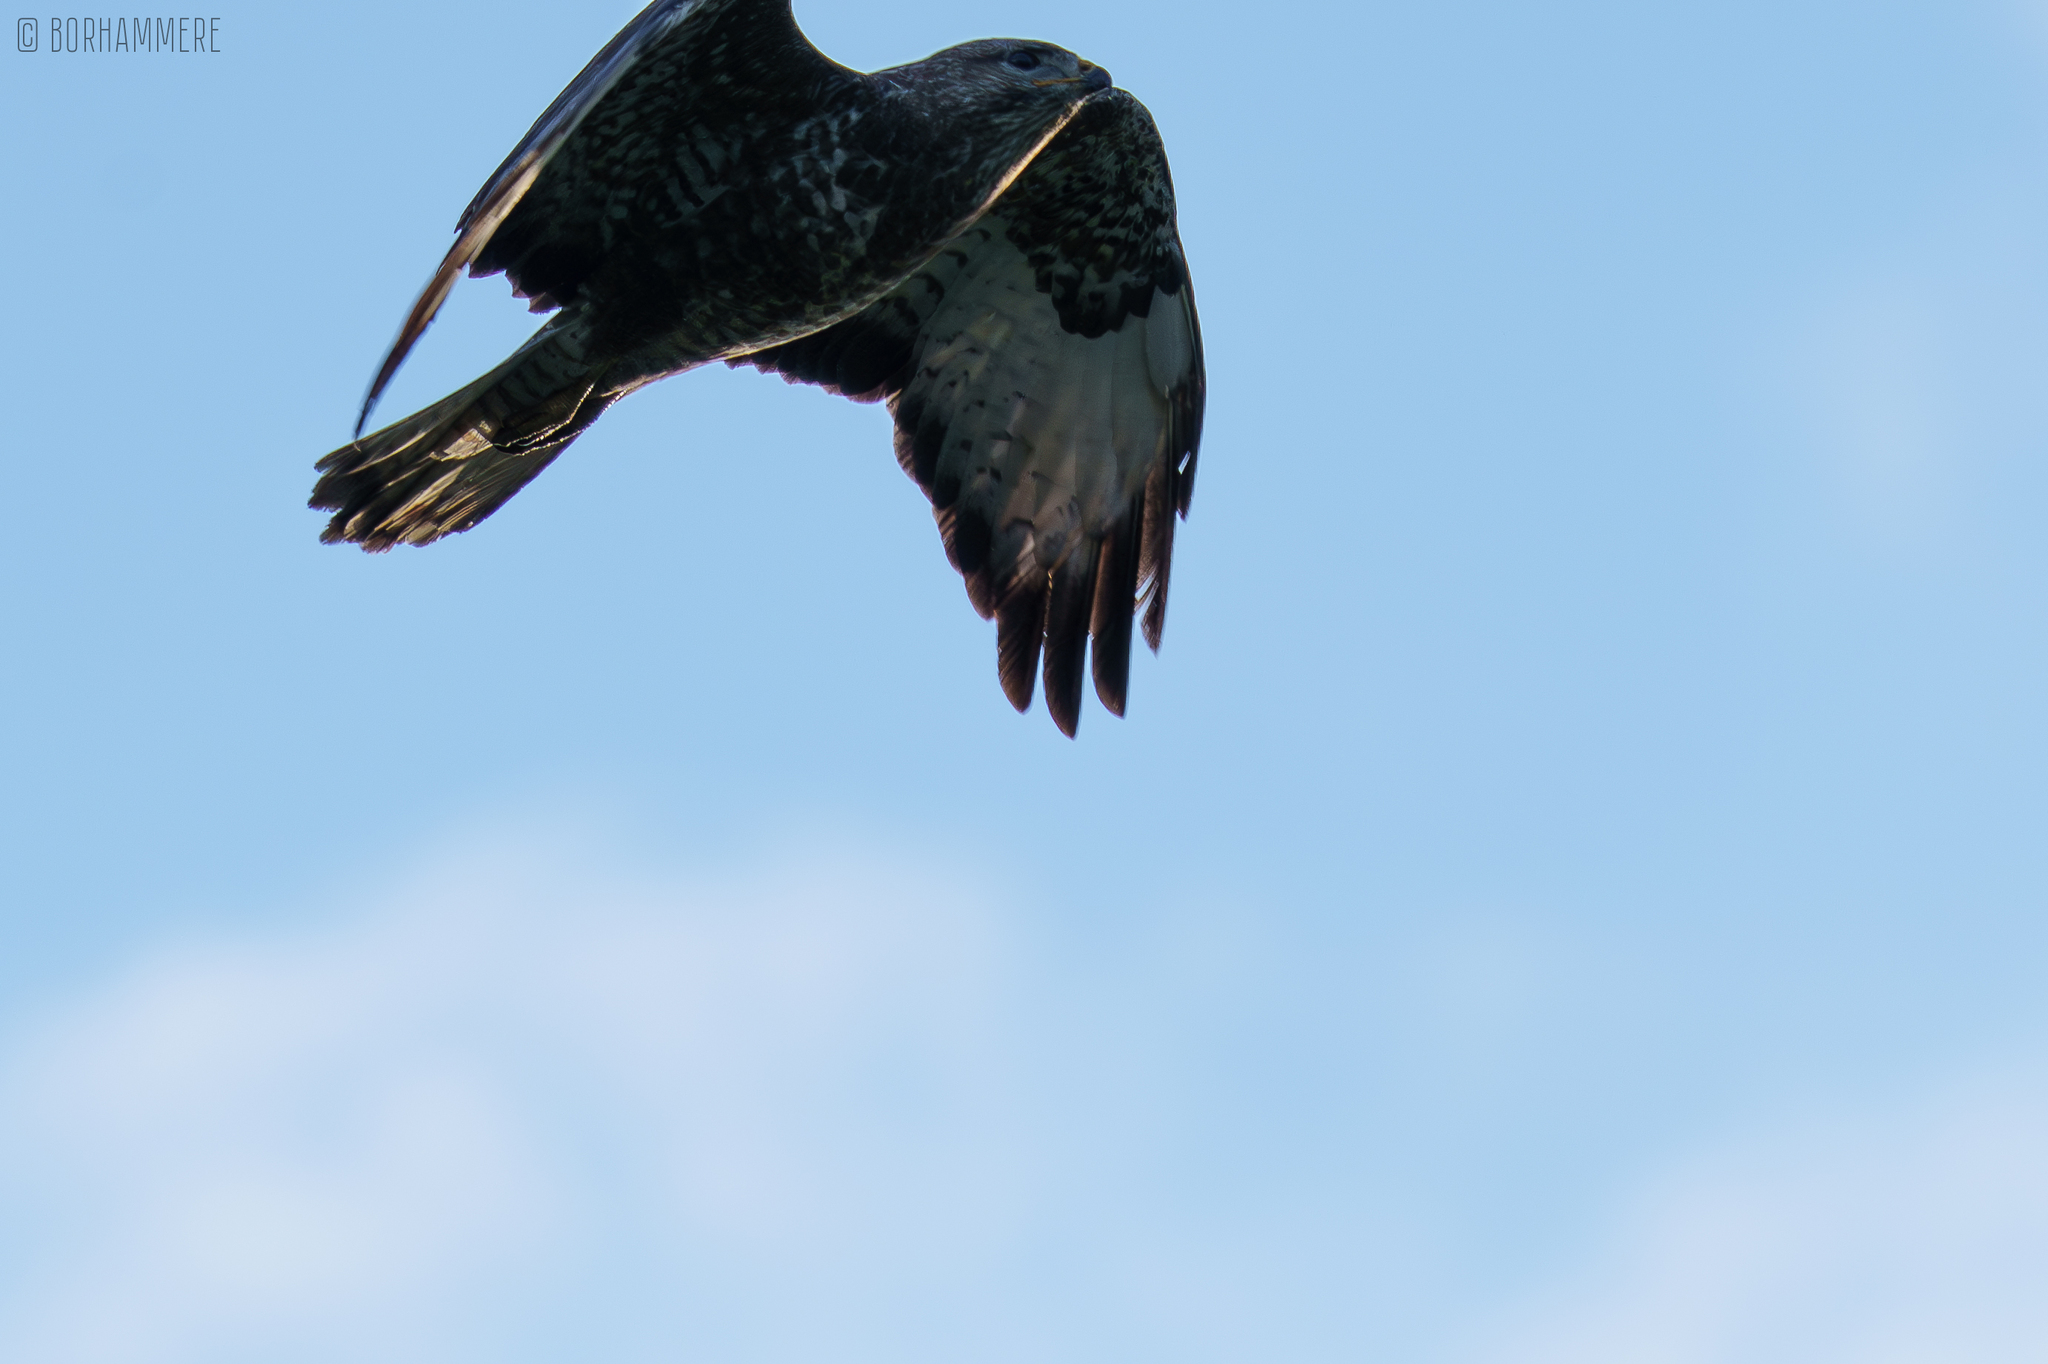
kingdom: Animalia
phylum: Chordata
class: Aves
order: Accipitriformes
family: Accipitridae
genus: Buteo
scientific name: Buteo buteo
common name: Common buzzard
